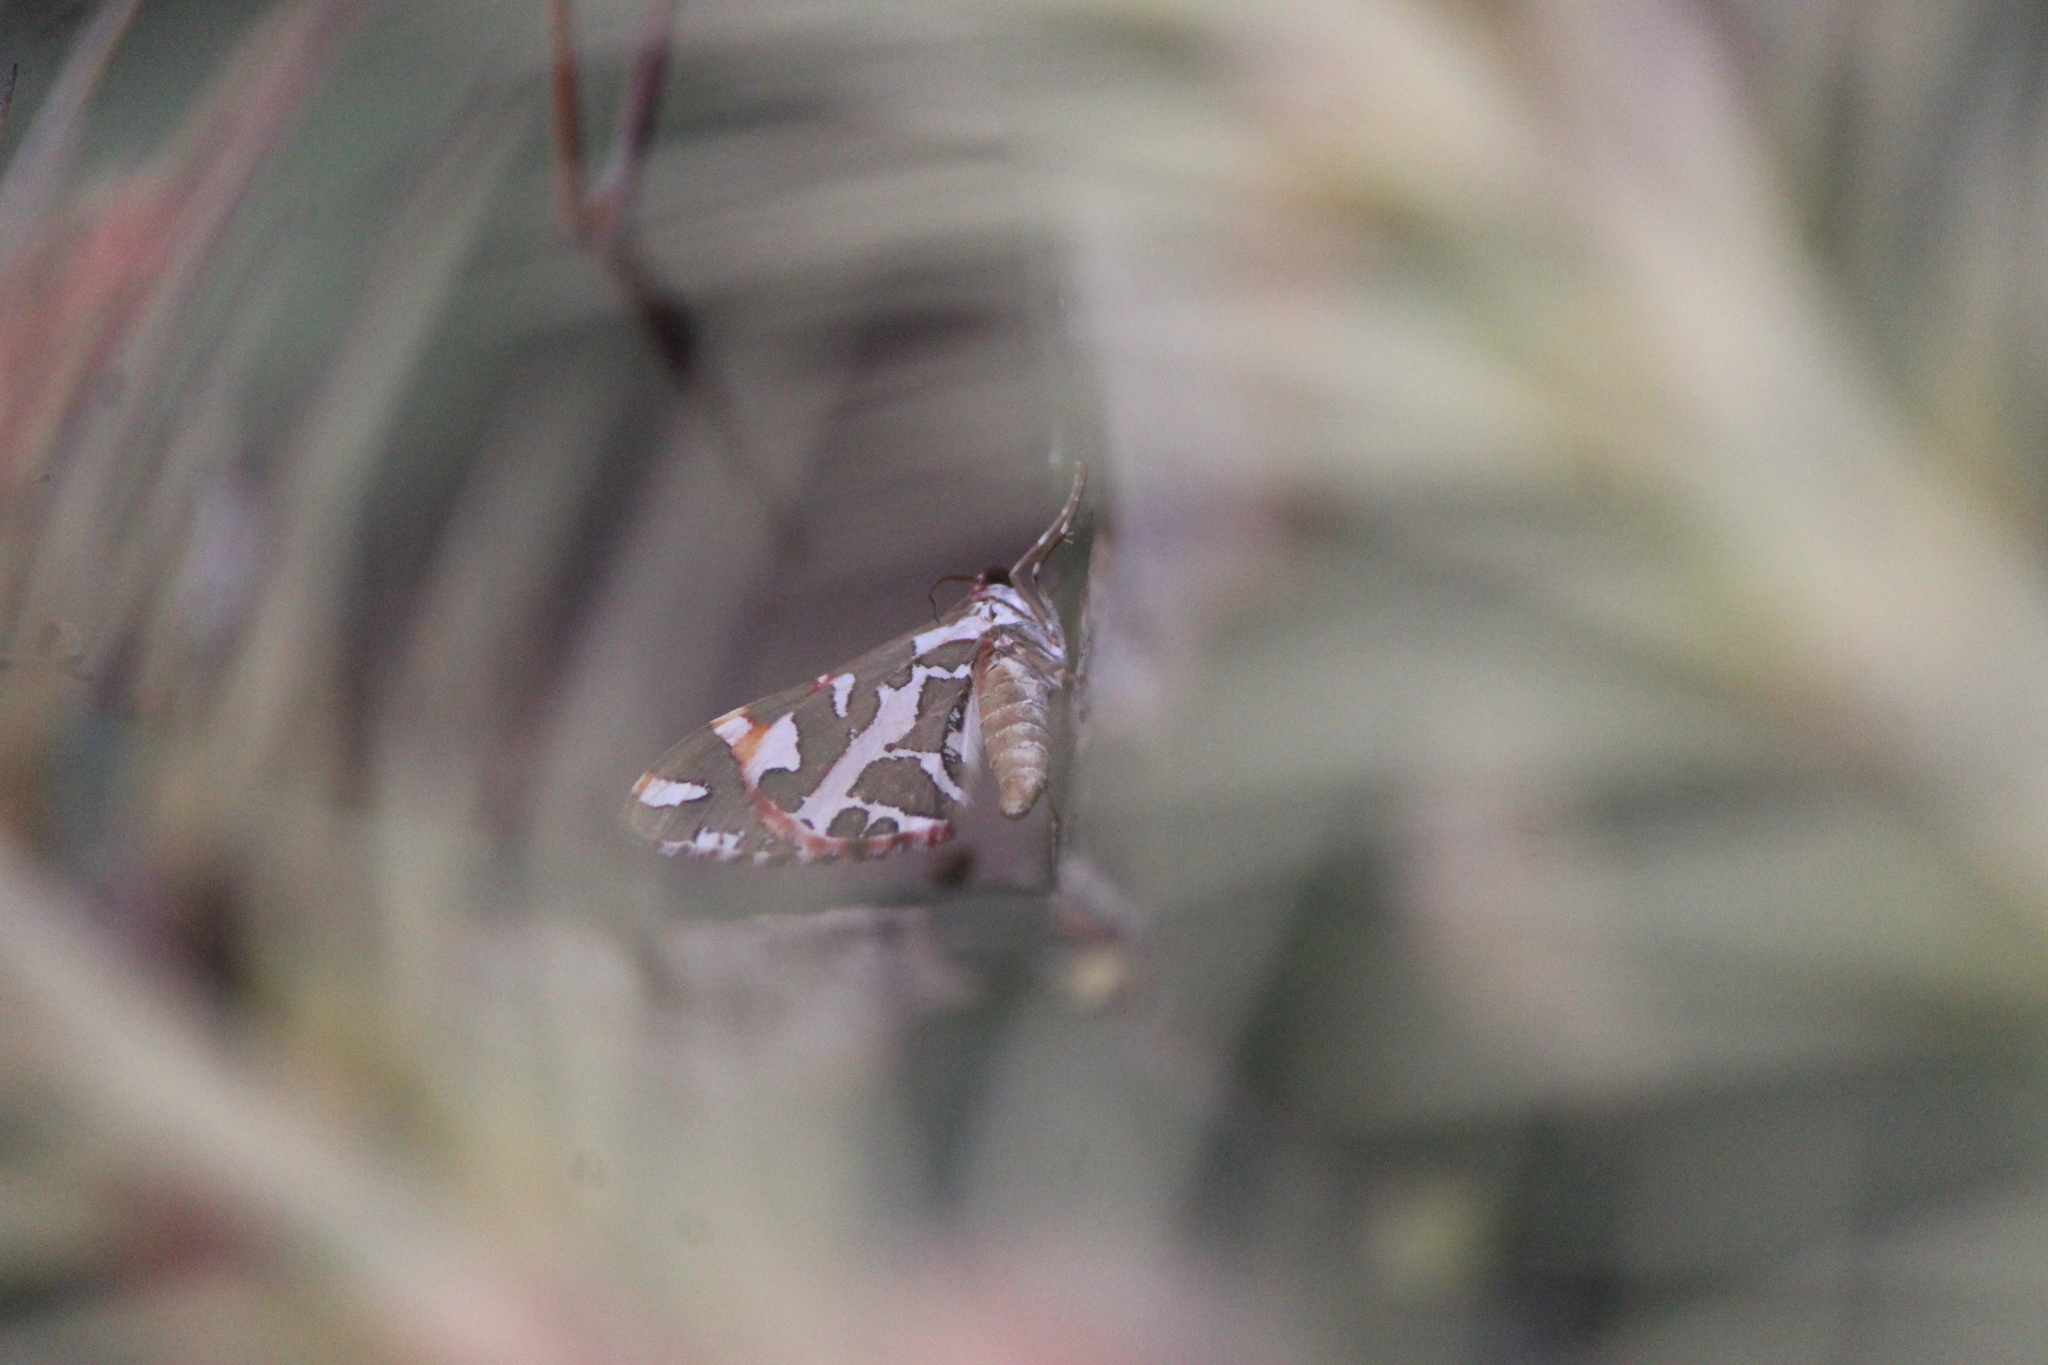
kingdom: Animalia
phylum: Arthropoda
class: Insecta
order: Lepidoptera
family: Geometridae
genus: Stamnodes
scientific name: Stamnodes
